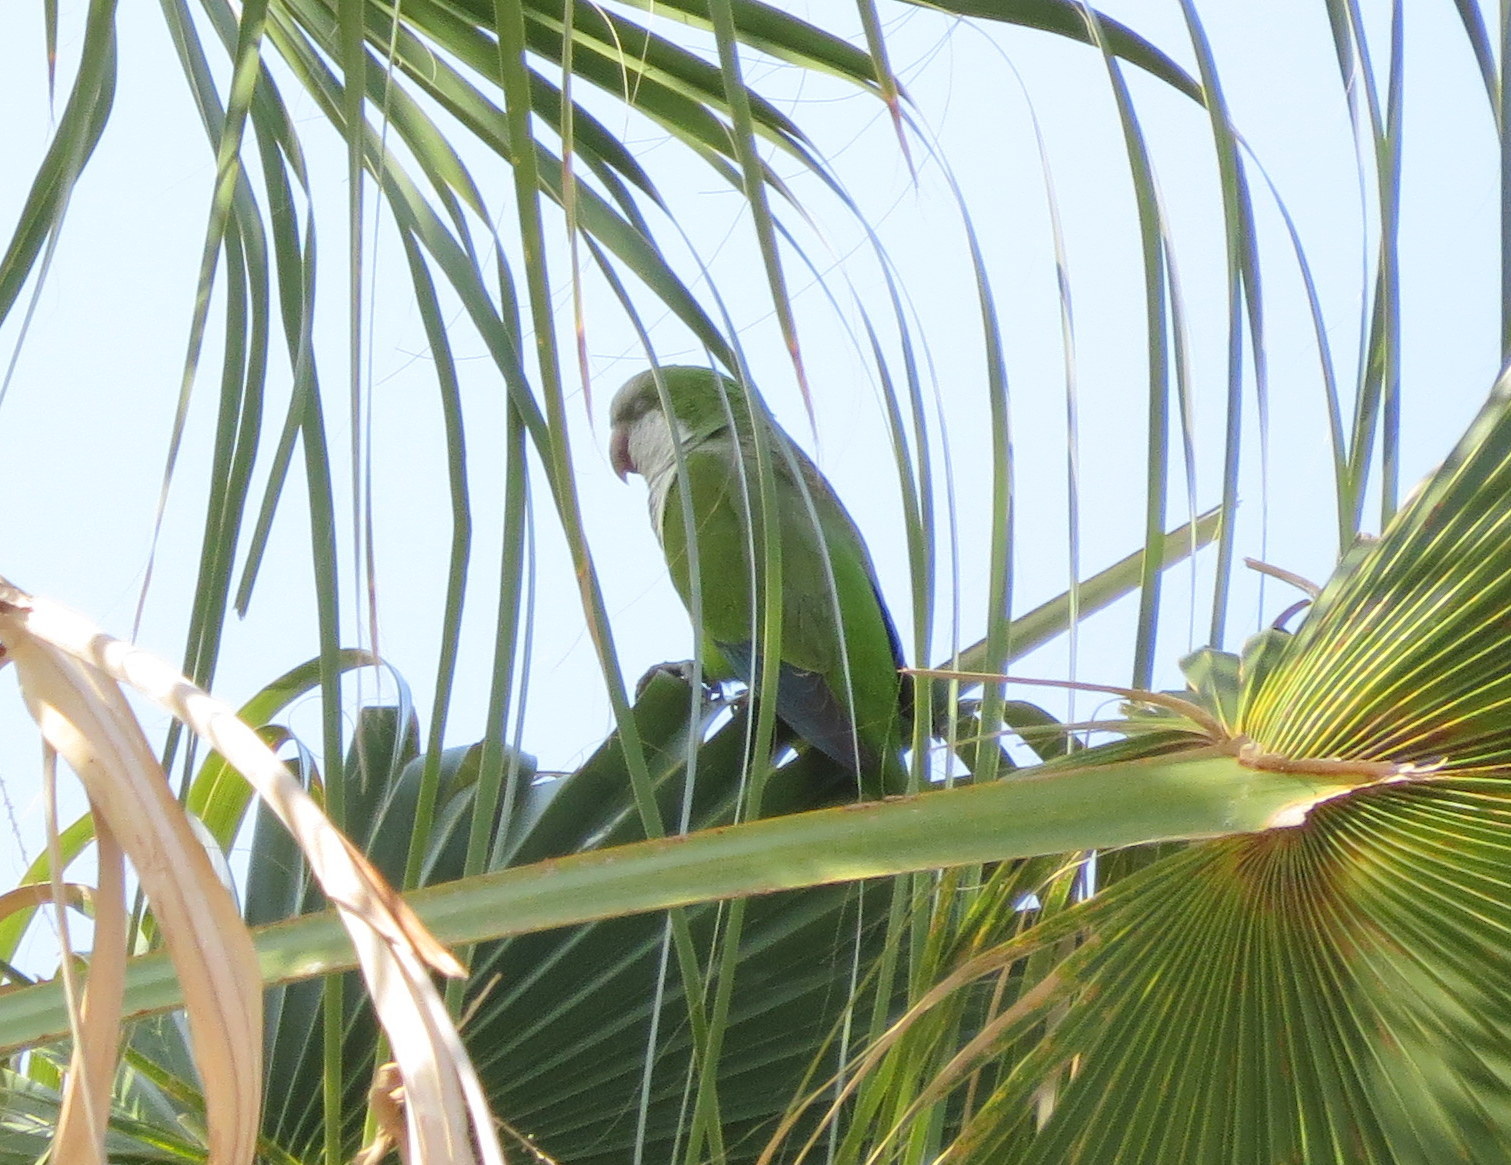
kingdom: Animalia
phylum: Chordata
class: Aves
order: Psittaciformes
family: Psittacidae
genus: Myiopsitta
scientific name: Myiopsitta monachus
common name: Monk parakeet
